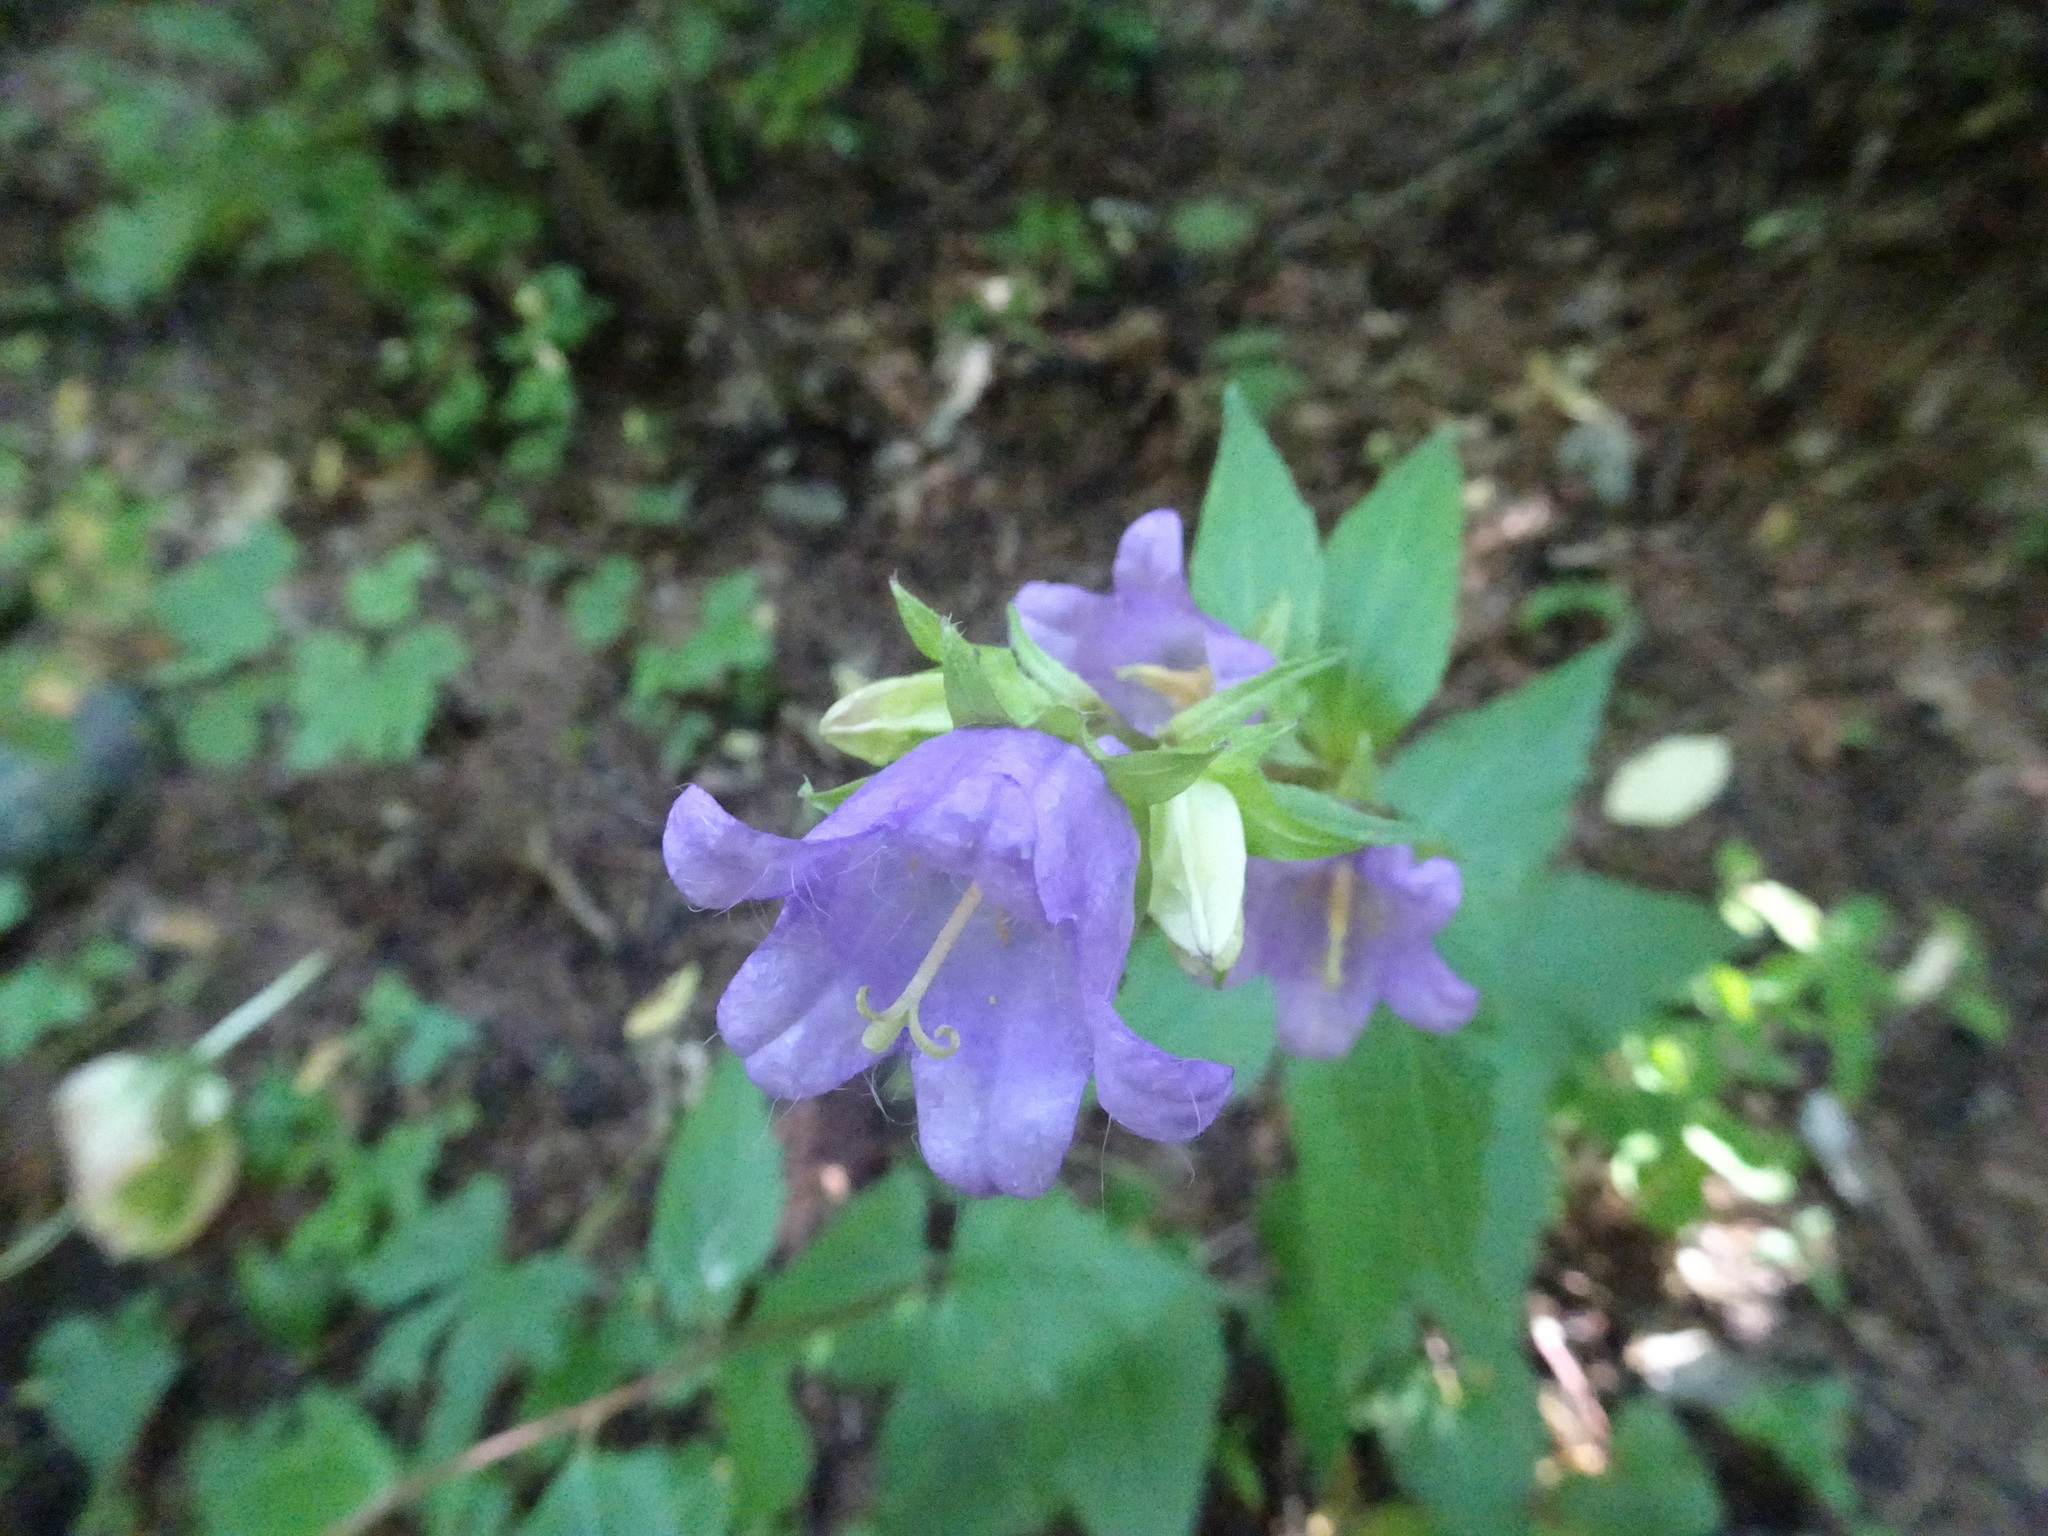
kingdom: Plantae
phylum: Tracheophyta
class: Magnoliopsida
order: Asterales
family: Campanulaceae
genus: Campanula
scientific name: Campanula trachelium
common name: Nettle-leaved bellflower
